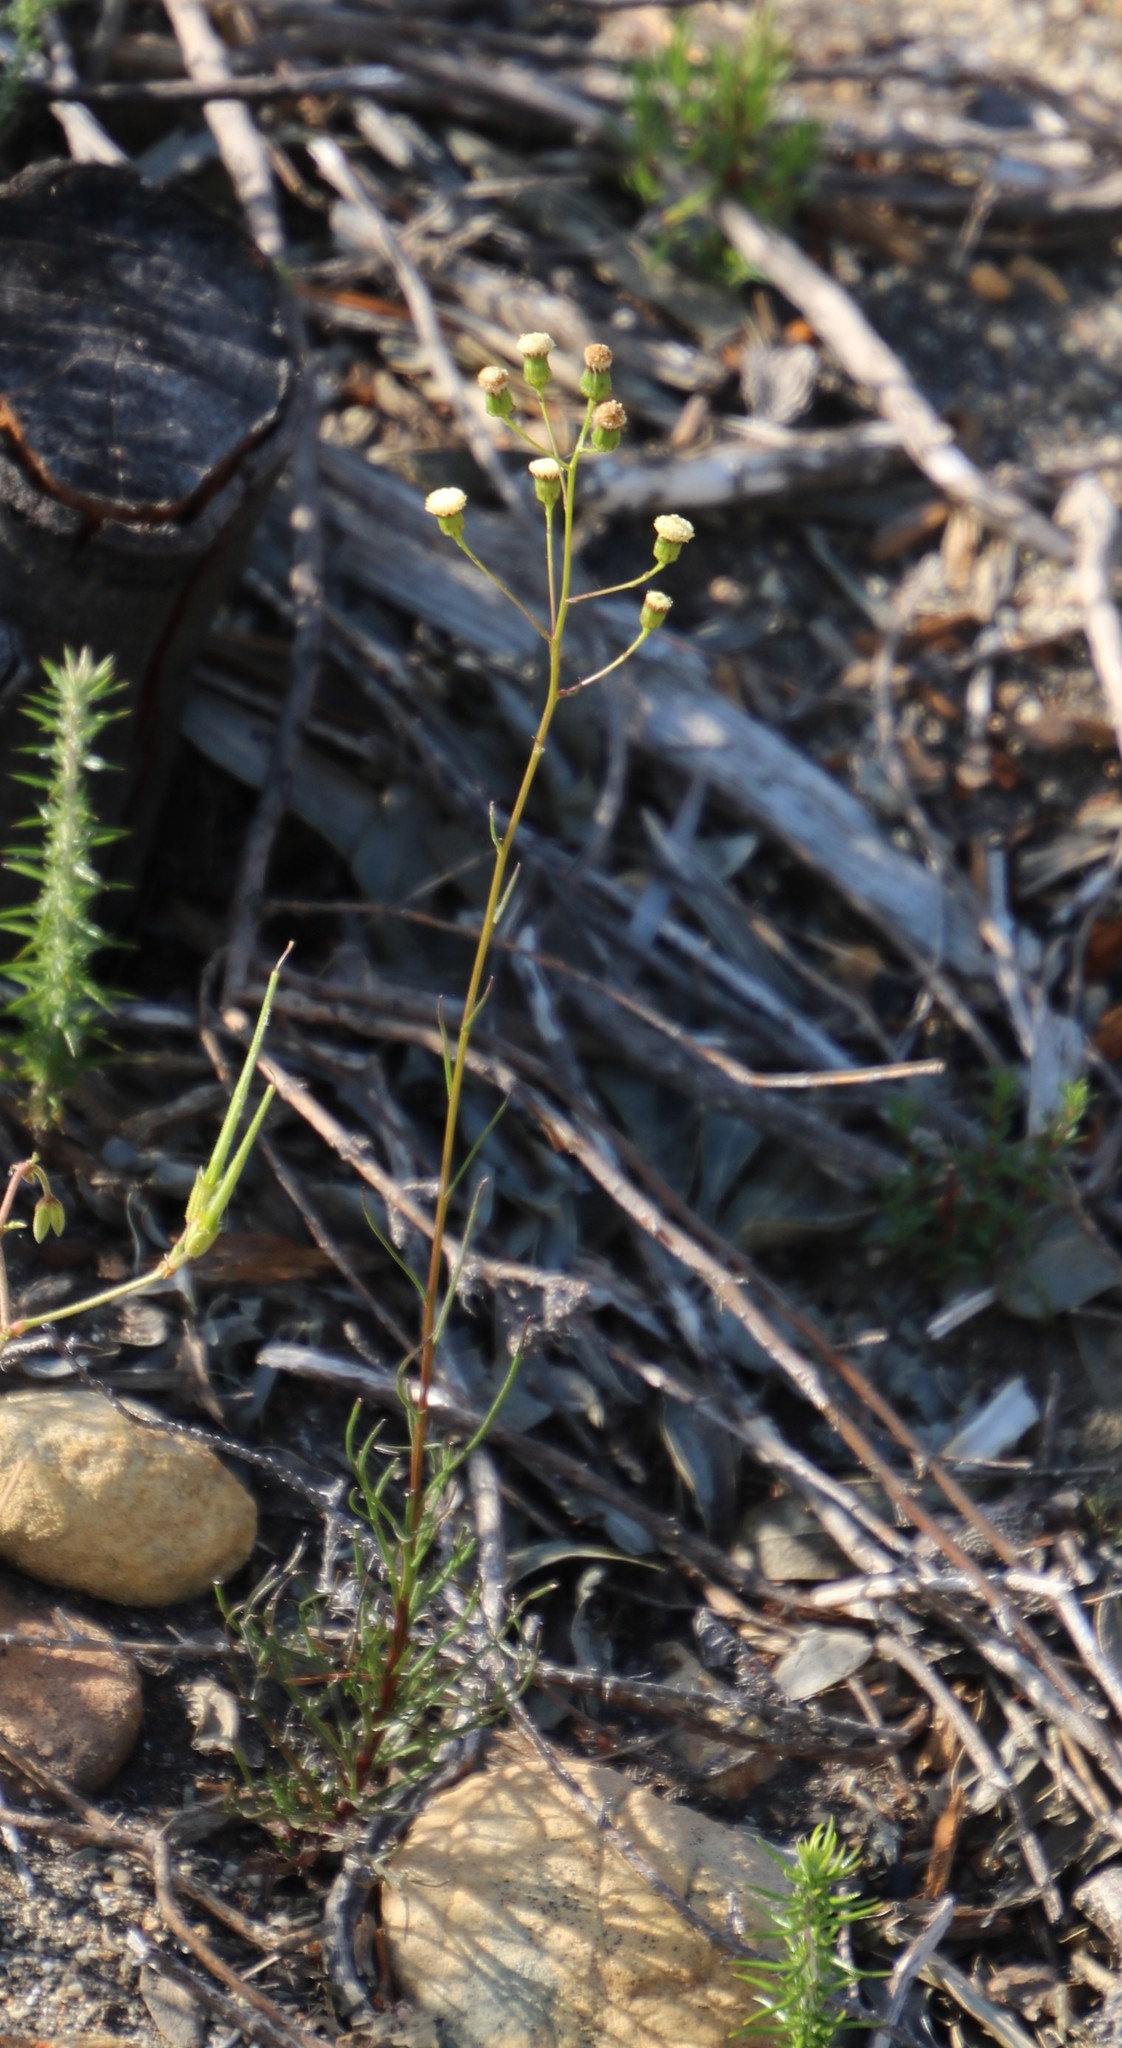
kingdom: Plantae
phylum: Tracheophyta
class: Magnoliopsida
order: Asterales
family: Asteraceae
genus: Senecio
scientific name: Senecio paniculatus
